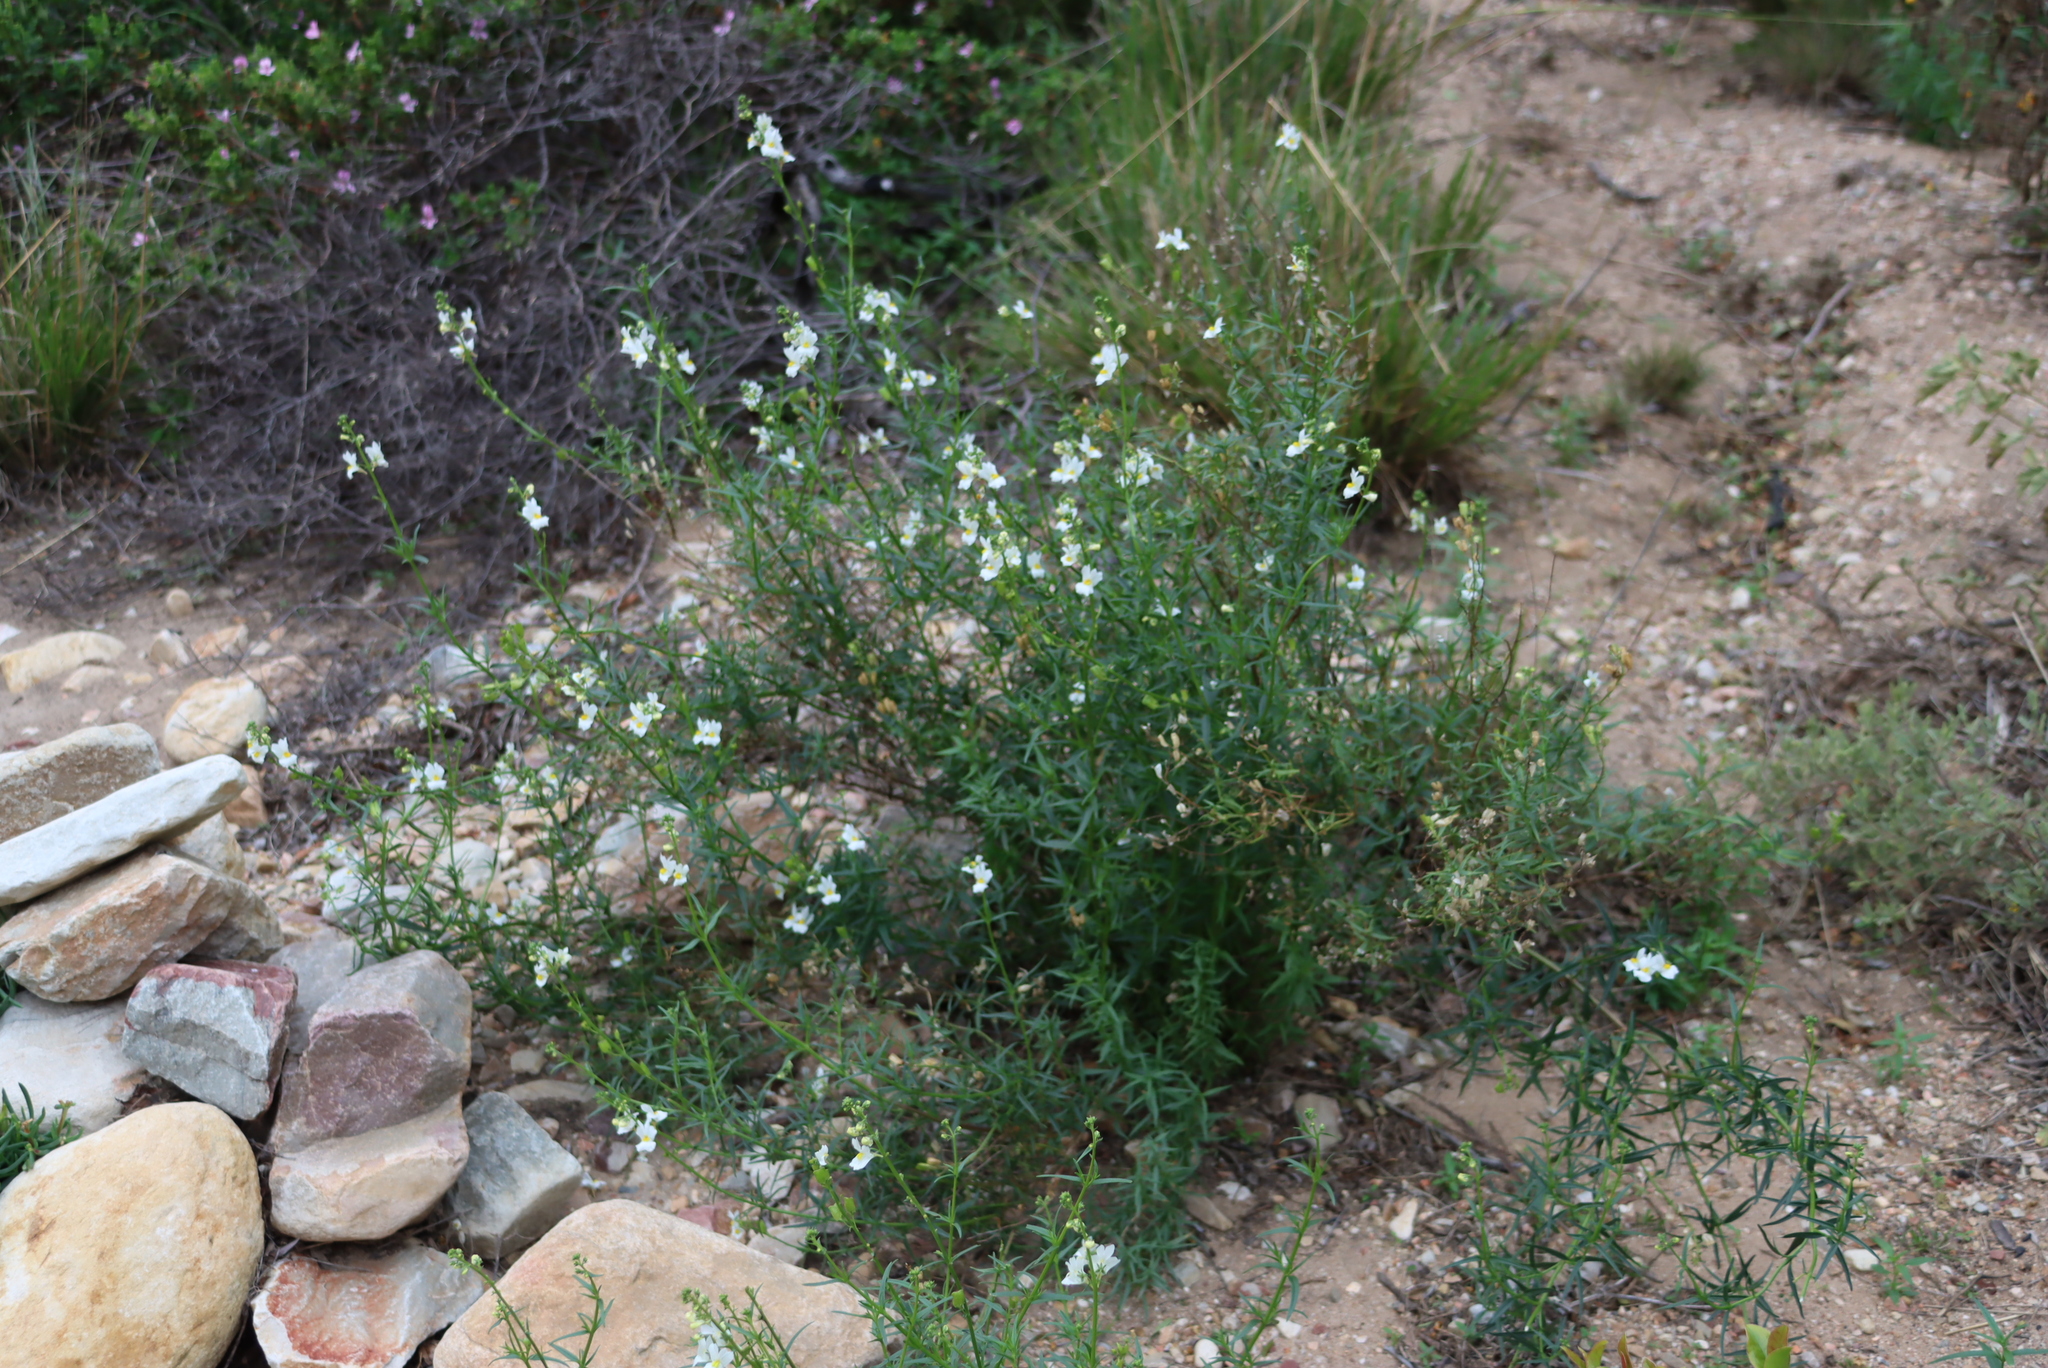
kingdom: Plantae
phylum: Tracheophyta
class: Magnoliopsida
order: Lamiales
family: Scrophulariaceae
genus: Nemesia
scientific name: Nemesia fruticans
